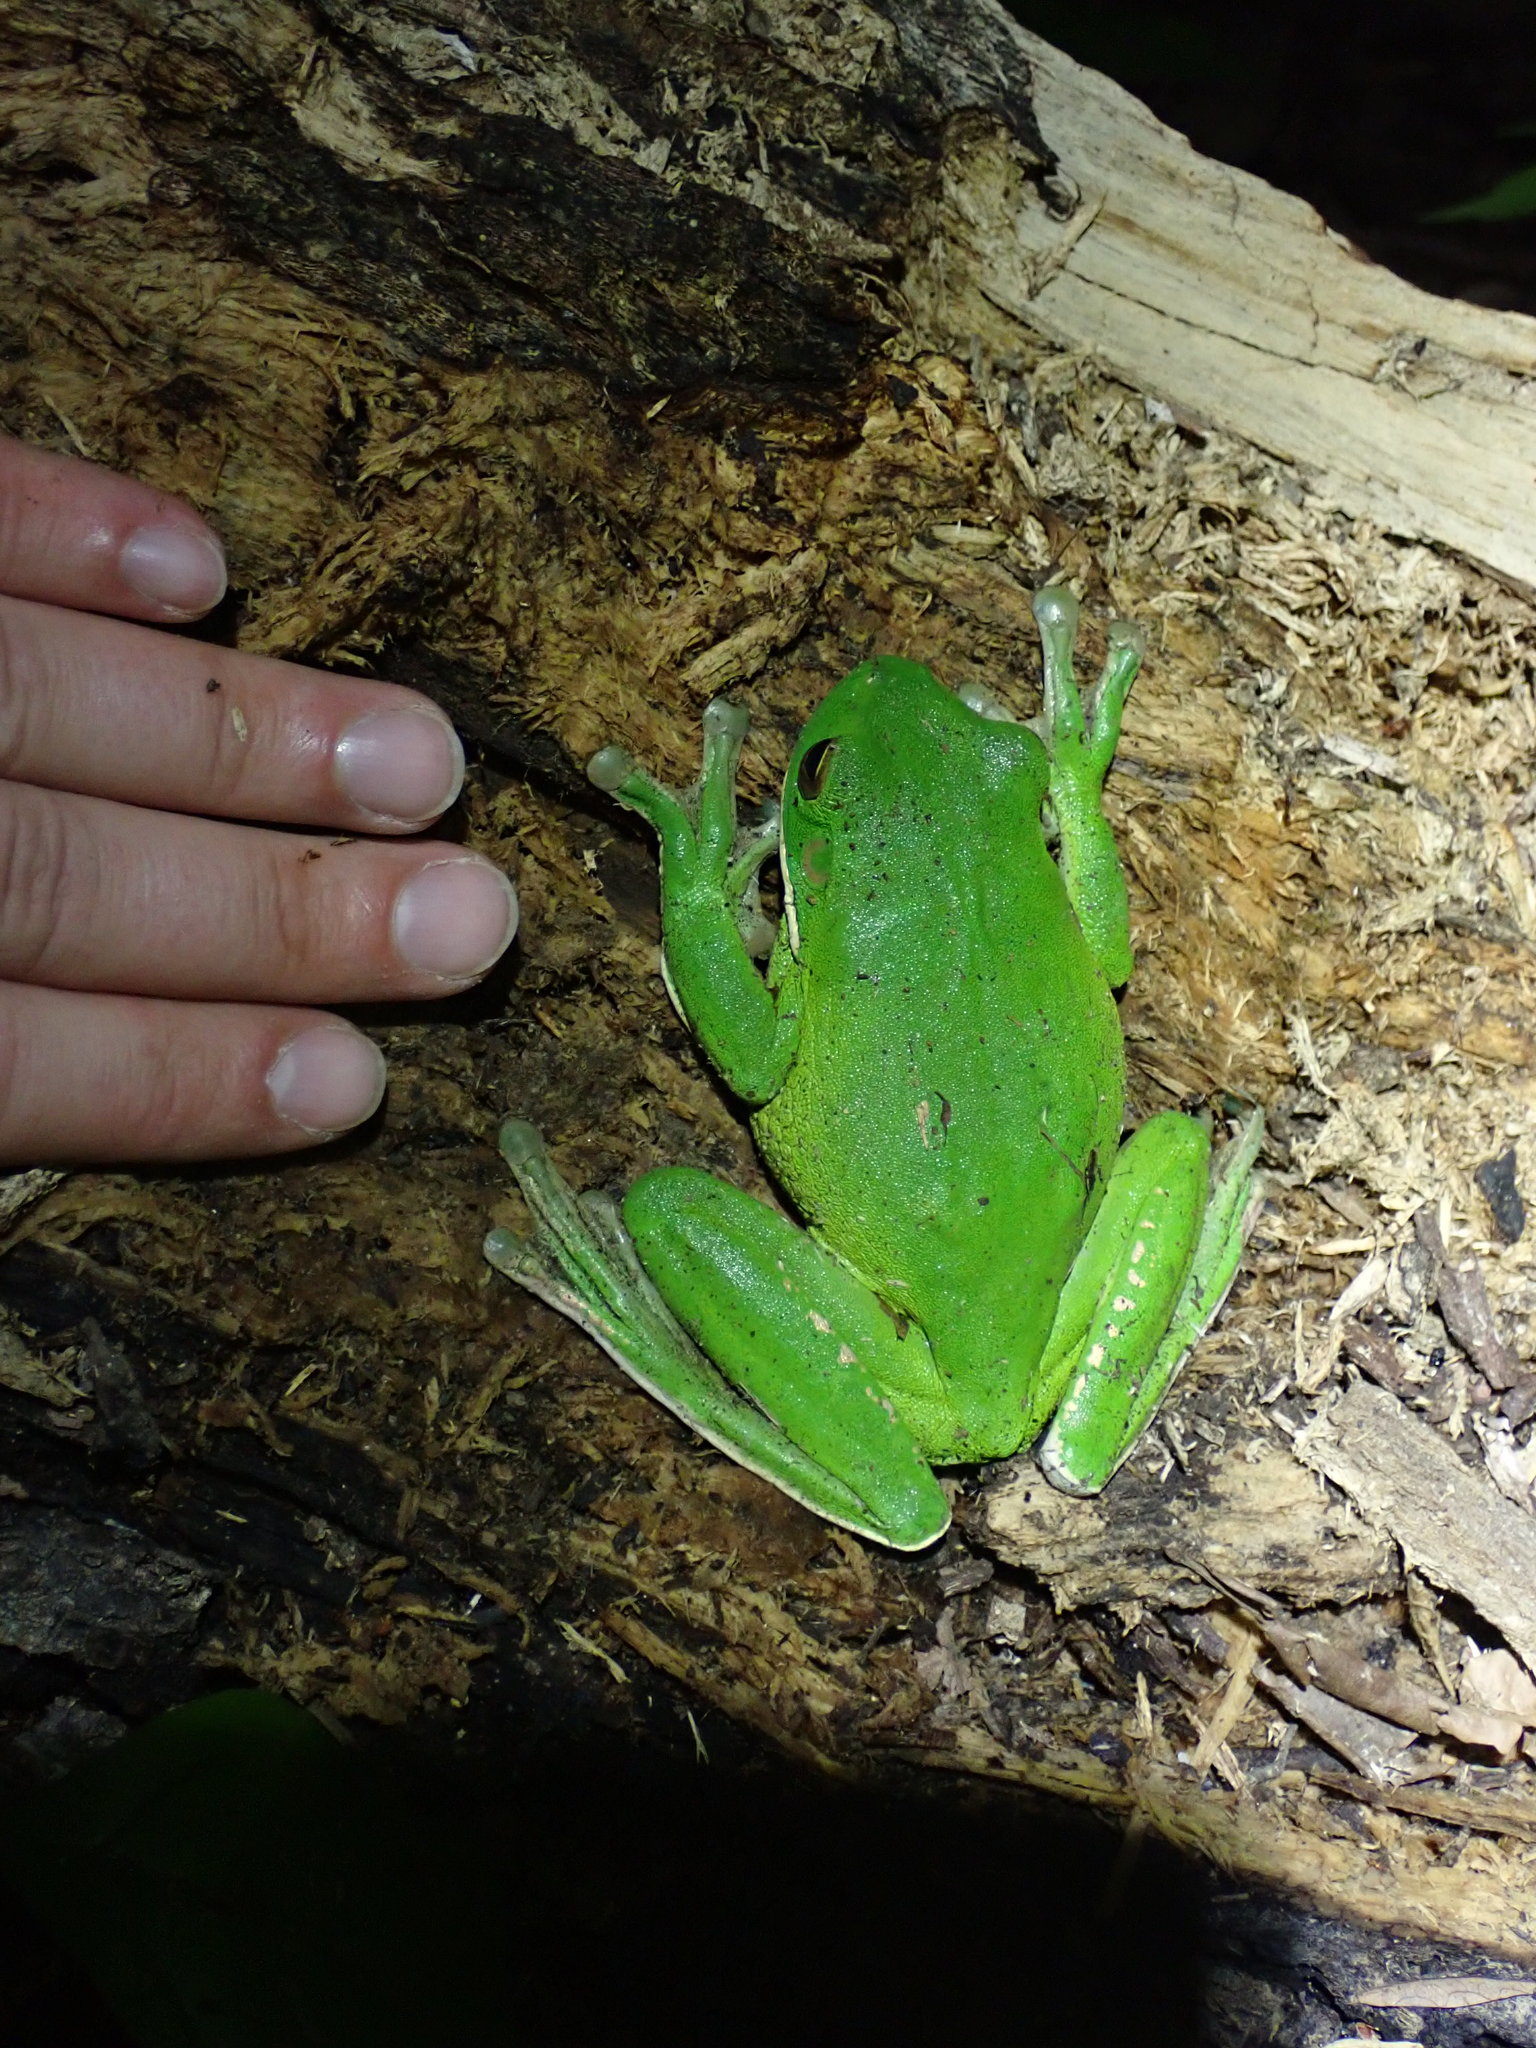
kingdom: Animalia
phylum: Chordata
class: Amphibia
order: Anura
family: Pelodryadidae
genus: Nyctimystes
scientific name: Nyctimystes infrafrenatus
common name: Australian giant treefrog
